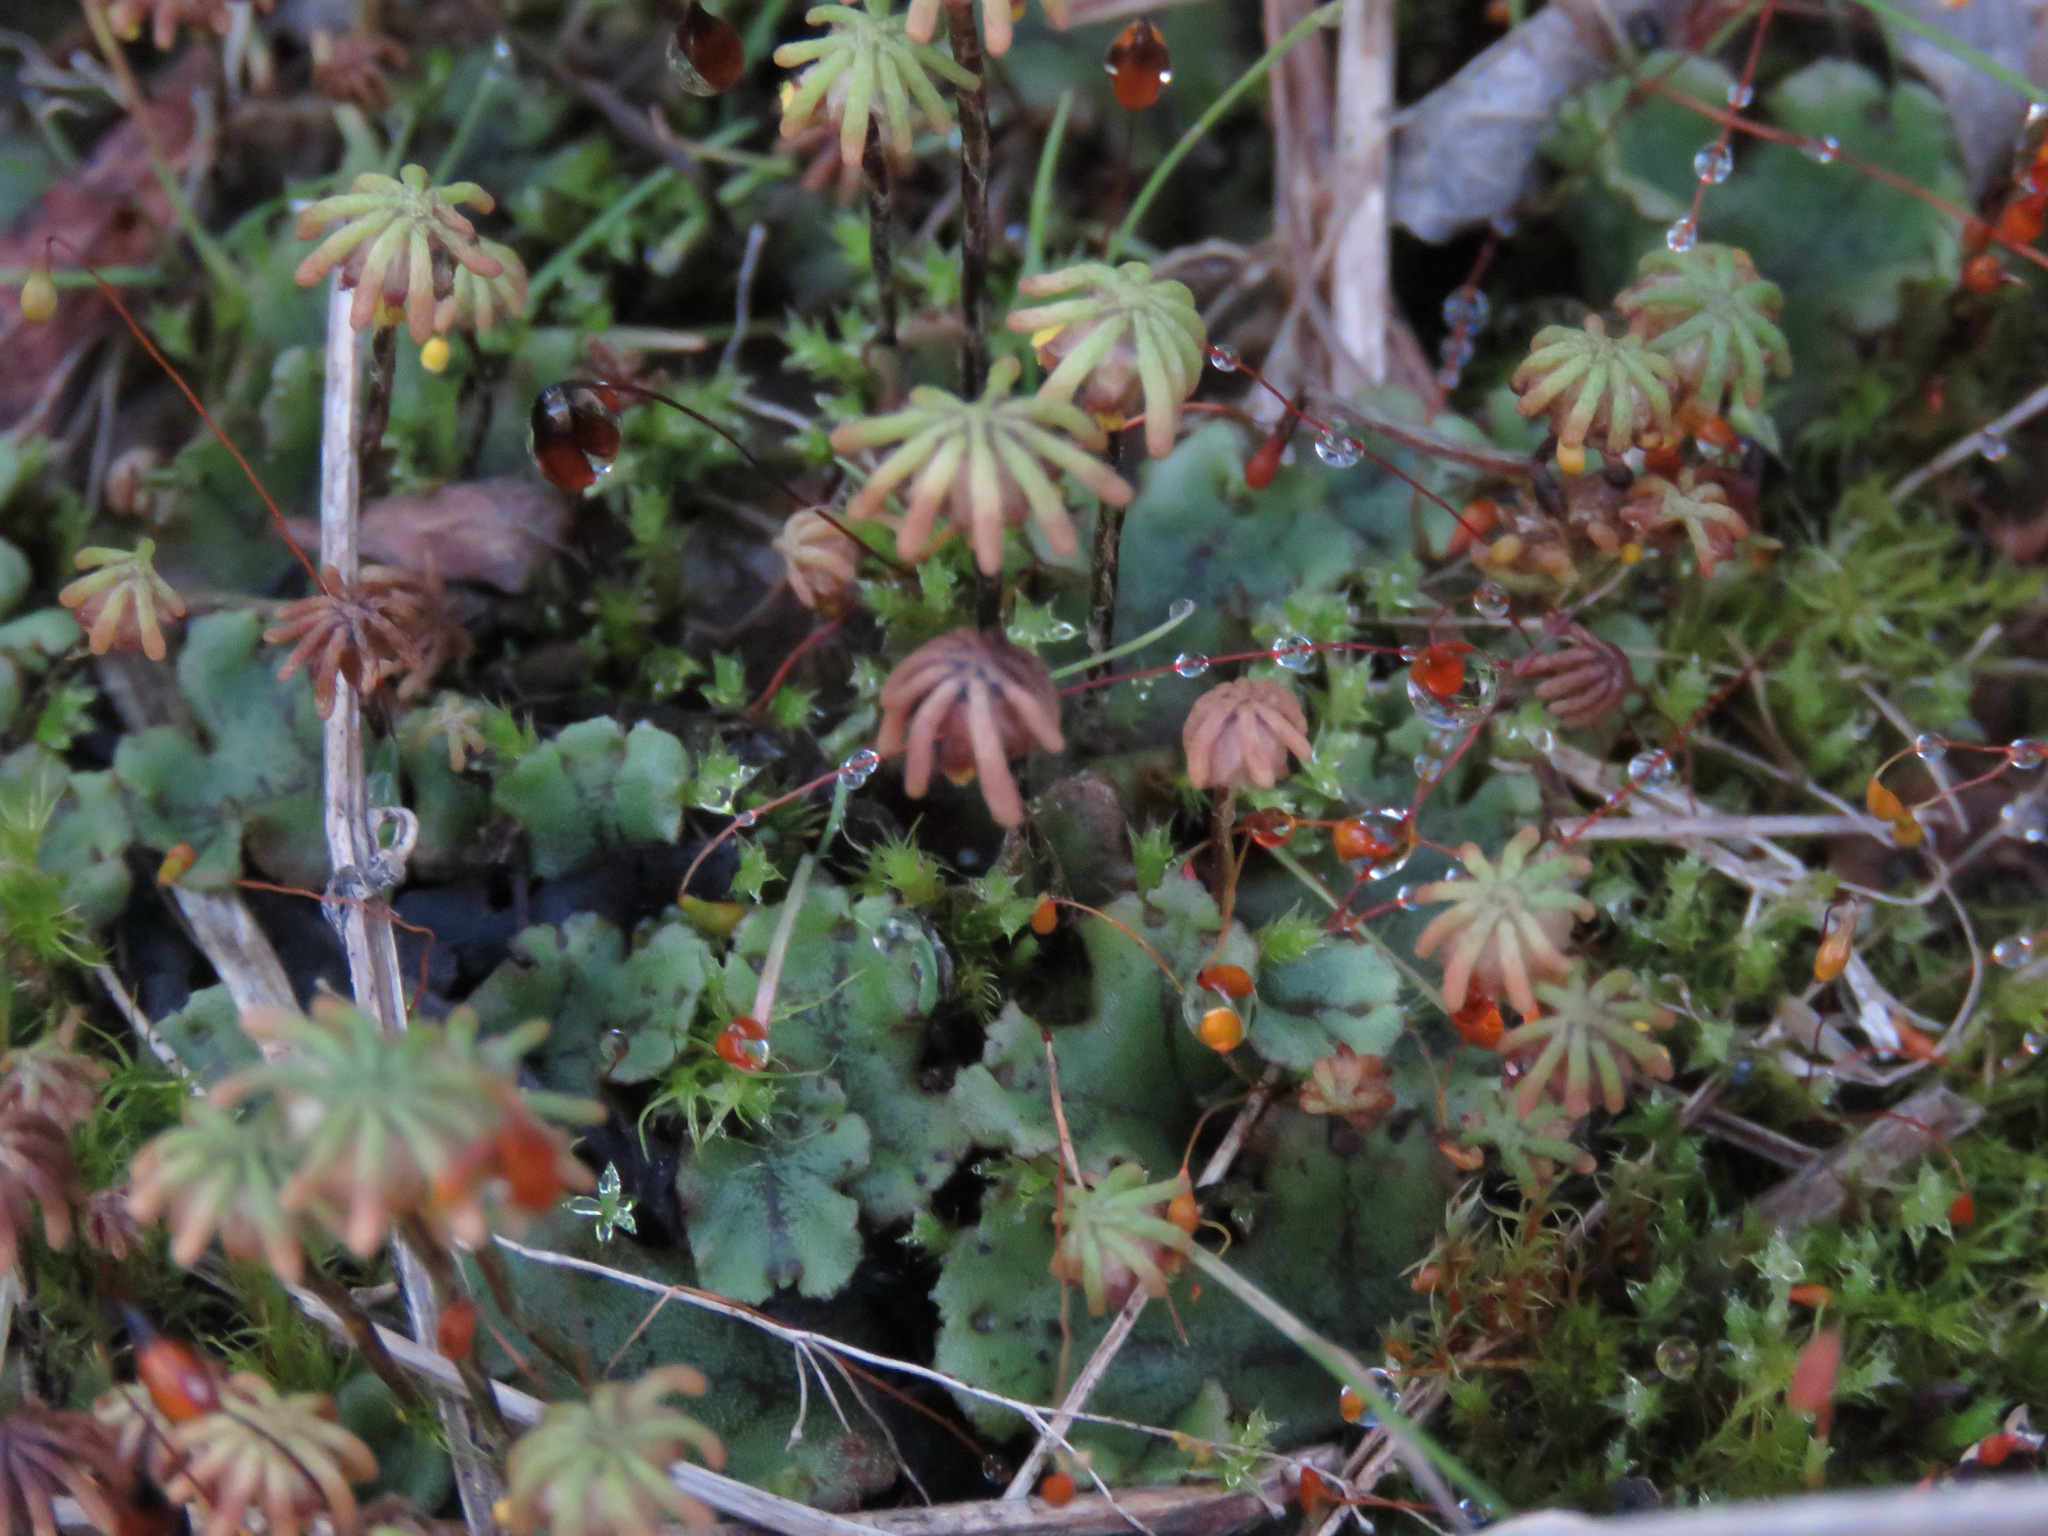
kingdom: Plantae
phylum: Marchantiophyta
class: Marchantiopsida
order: Marchantiales
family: Marchantiaceae
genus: Marchantia
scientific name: Marchantia polymorpha
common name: Common liverwort
